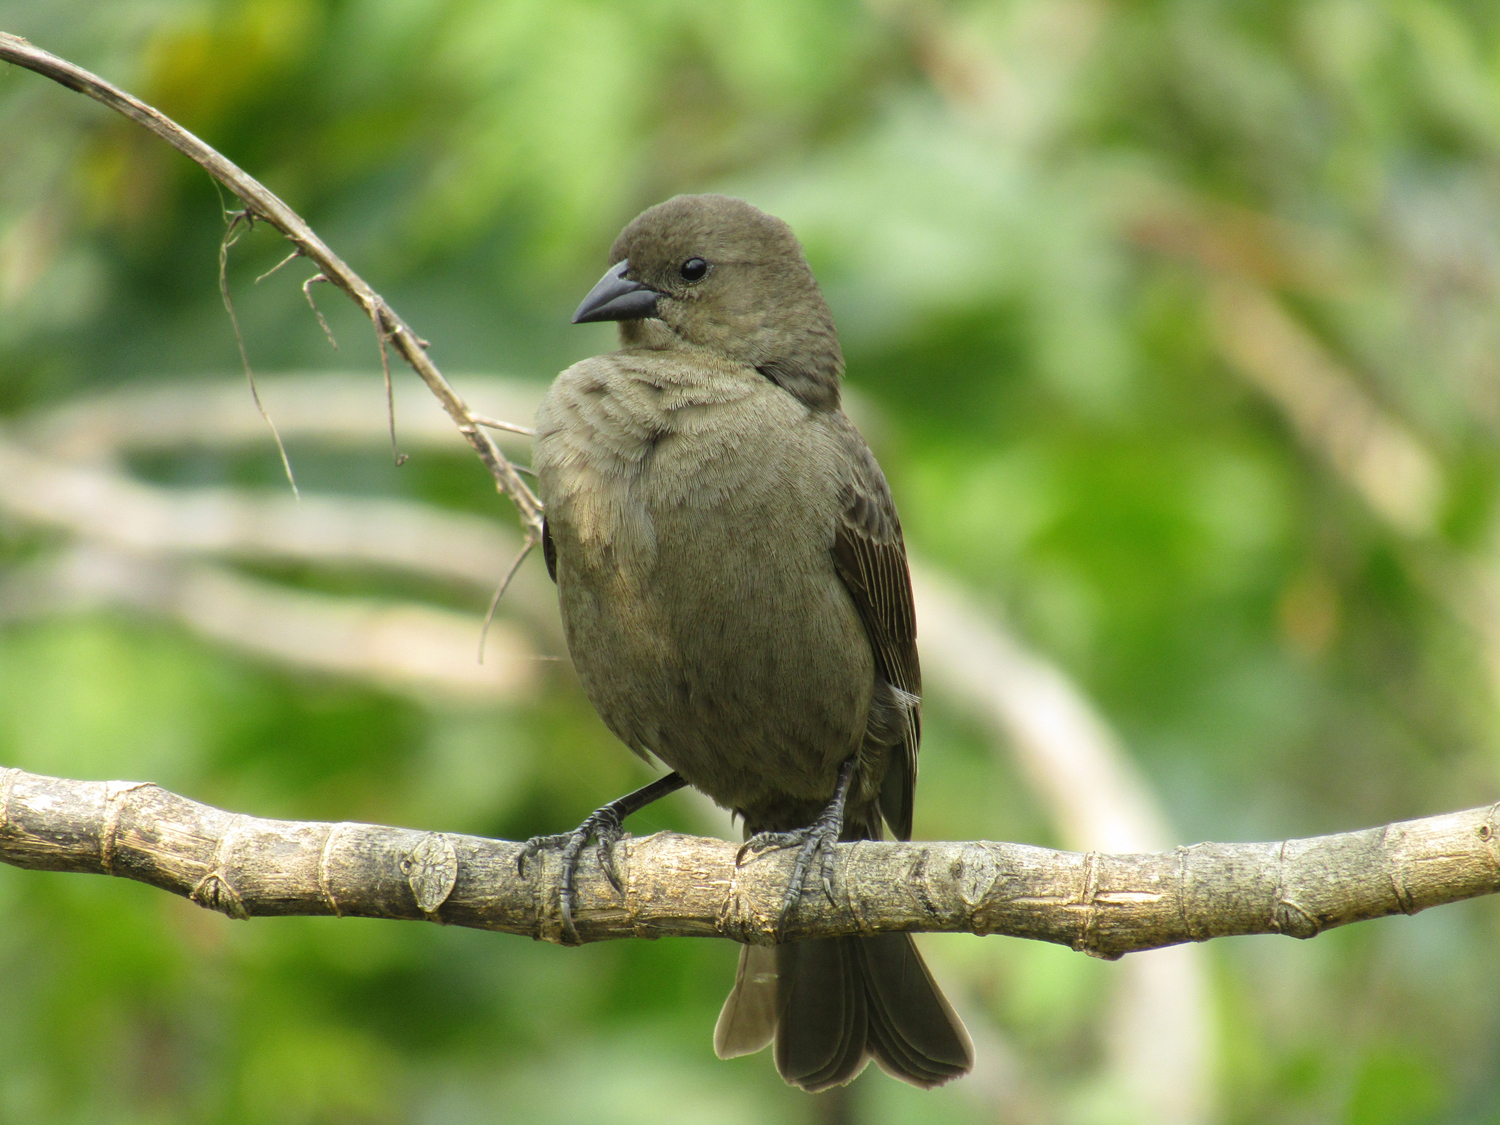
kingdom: Animalia
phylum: Chordata
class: Aves
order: Passeriformes
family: Icteridae
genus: Molothrus
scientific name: Molothrus bonariensis
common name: Shiny cowbird
